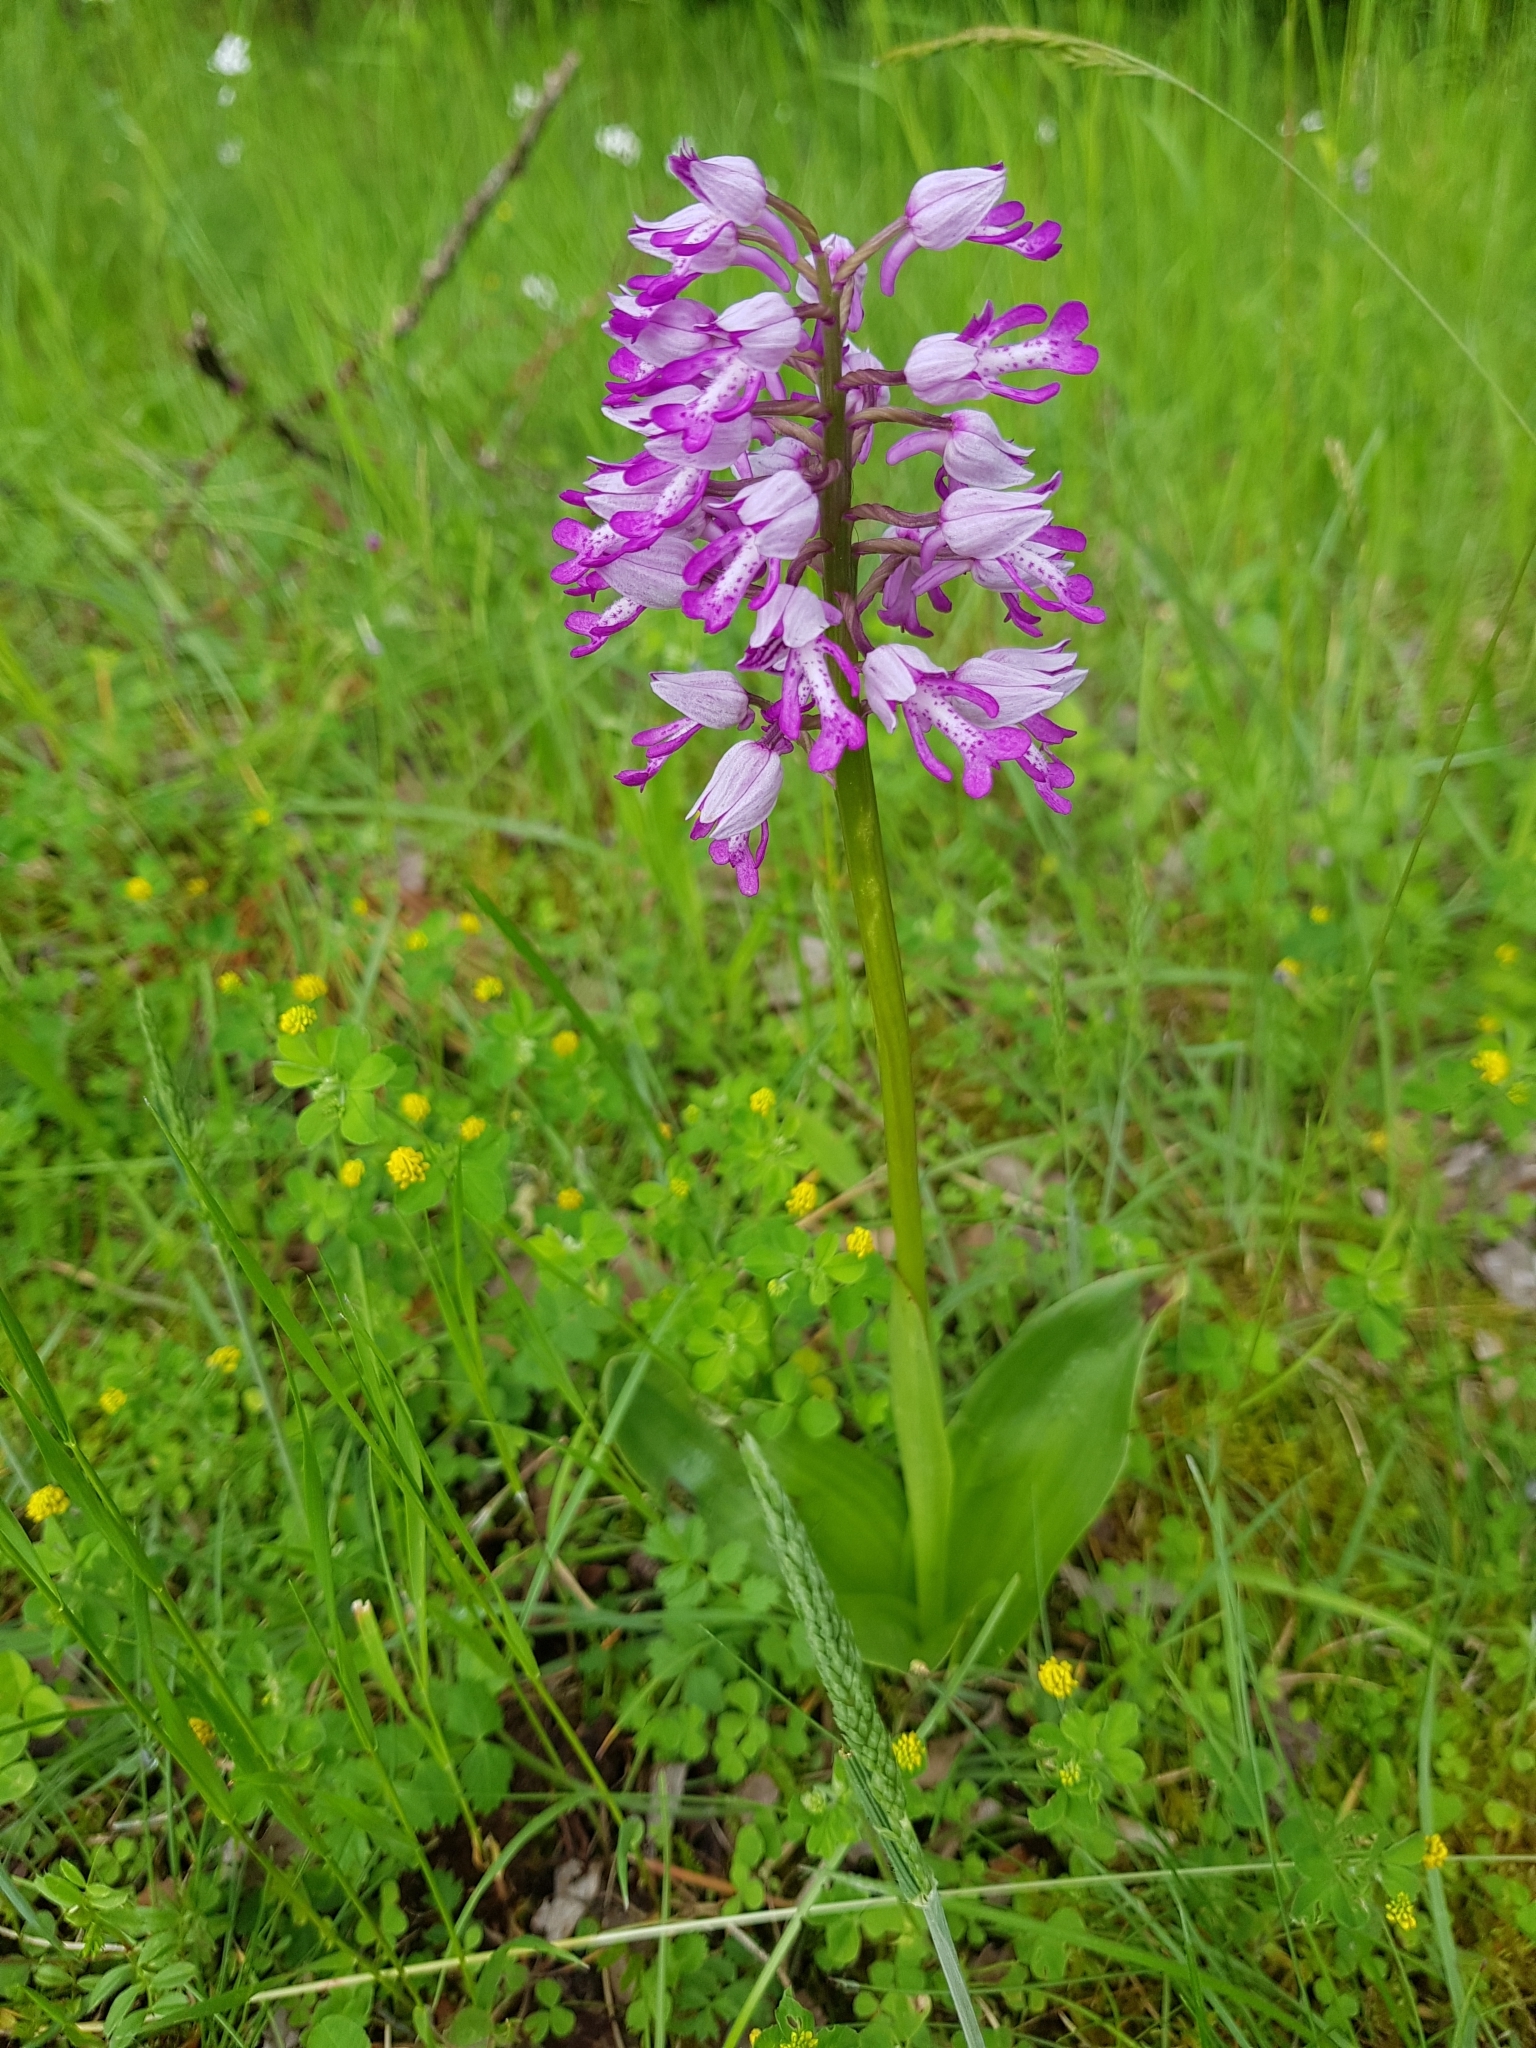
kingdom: Plantae
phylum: Tracheophyta
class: Liliopsida
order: Asparagales
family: Orchidaceae
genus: Orchis
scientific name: Orchis militaris
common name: Military orchid
